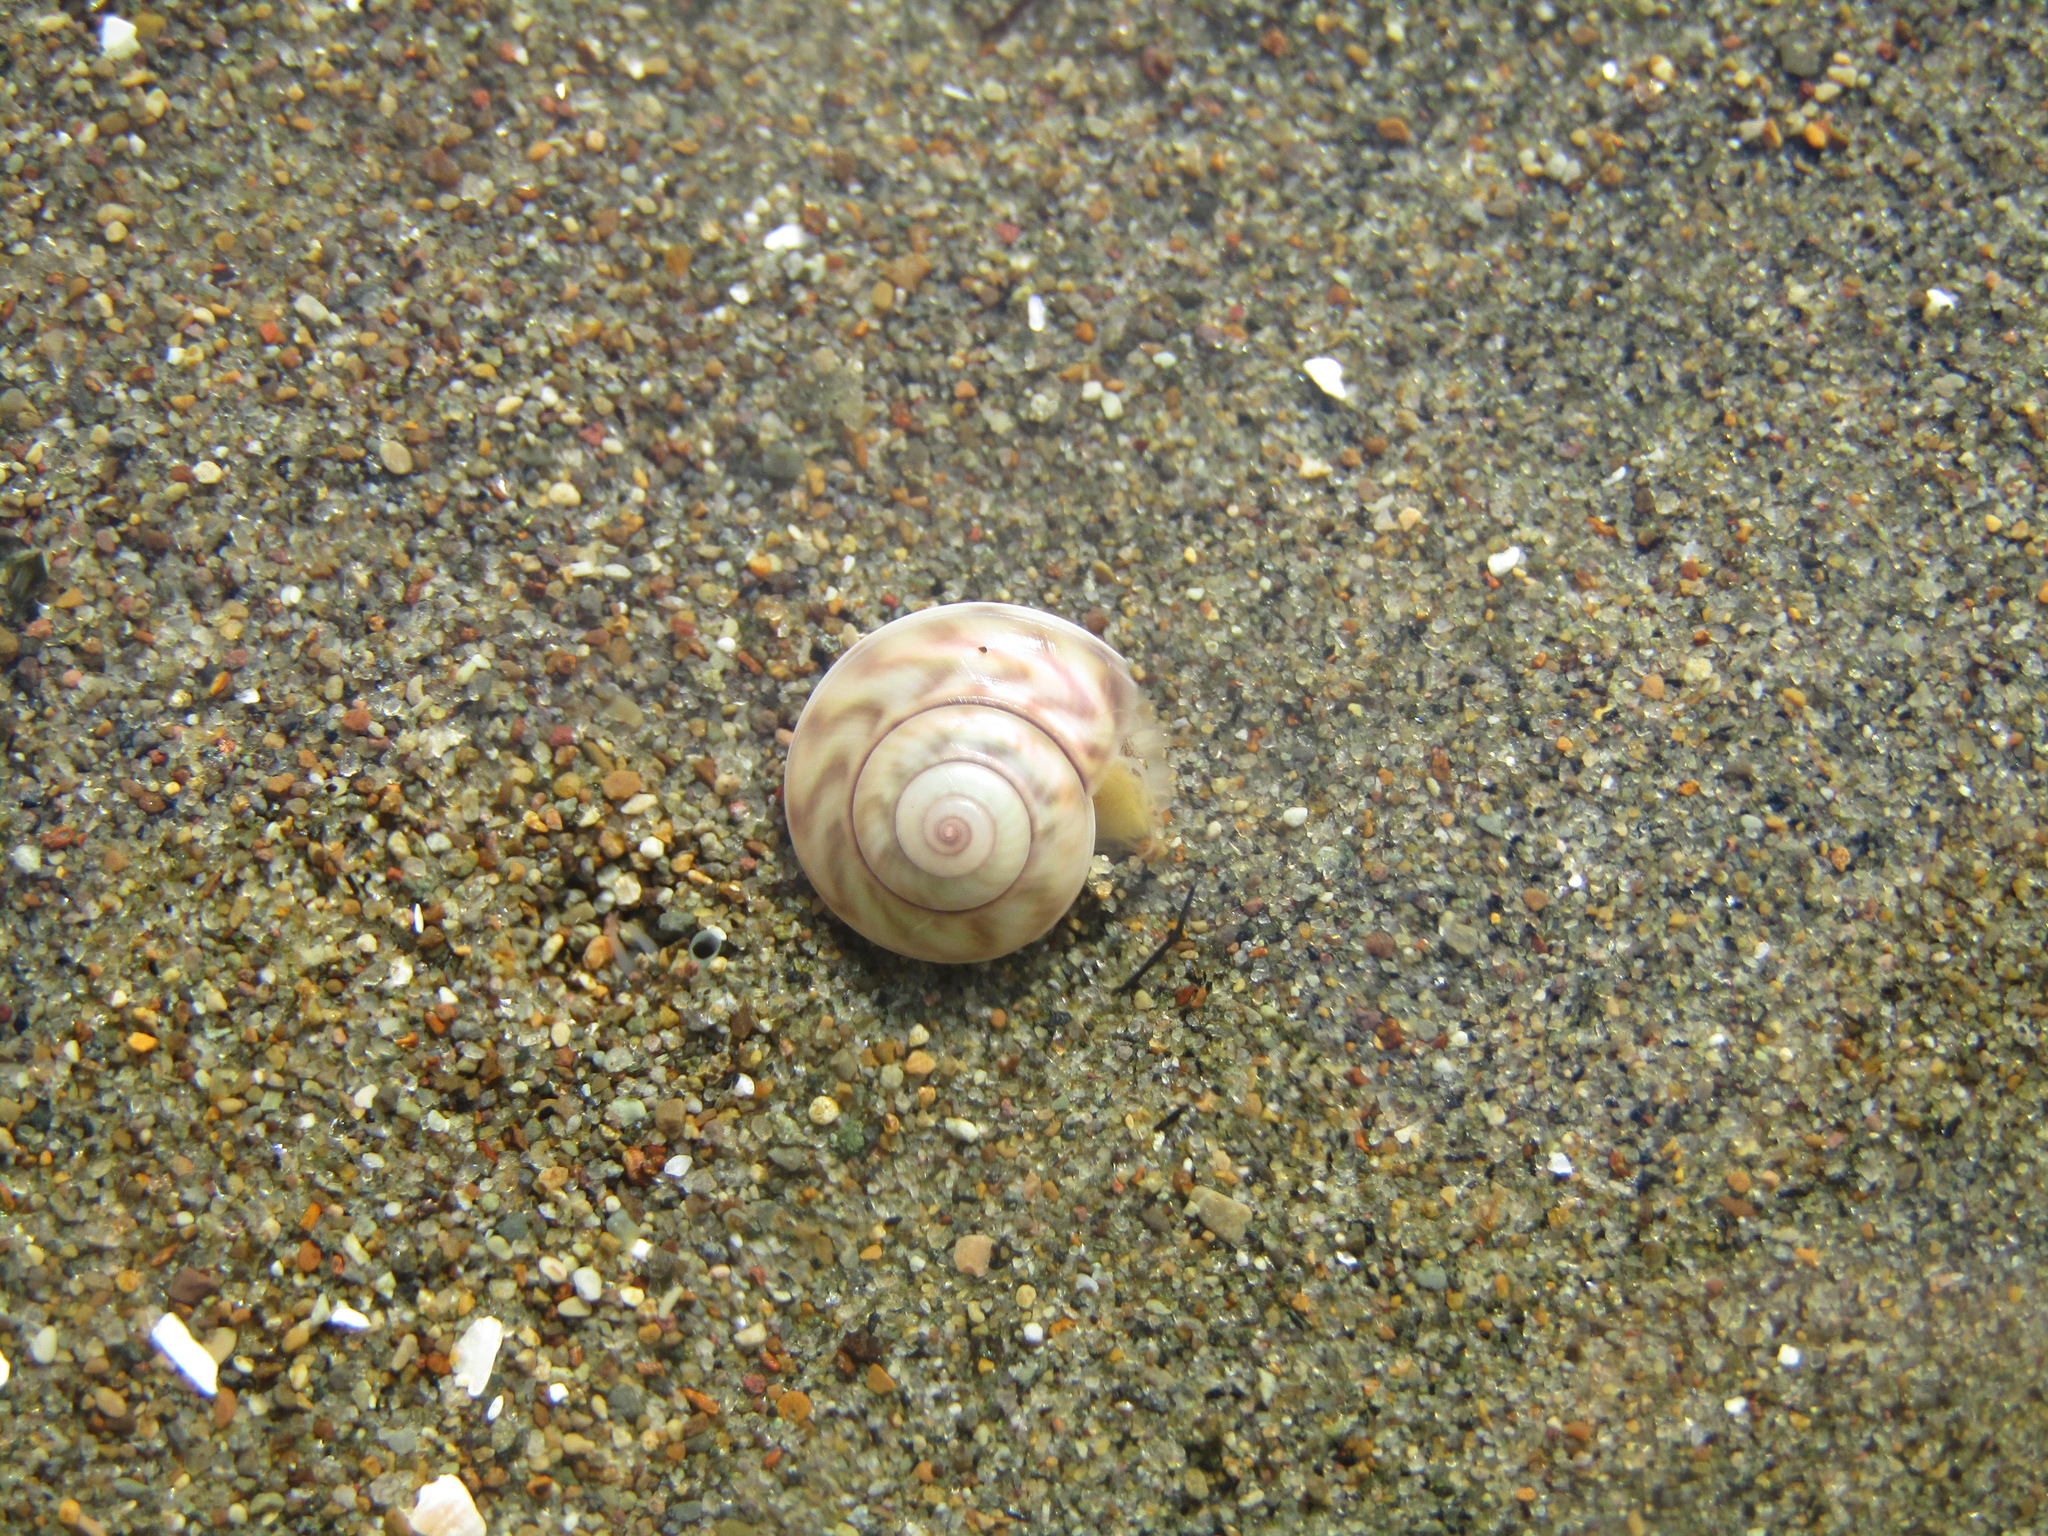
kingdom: Animalia
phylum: Mollusca
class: Gastropoda
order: Trochida
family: Trochidae
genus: Zethalia
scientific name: Zethalia zelandica
